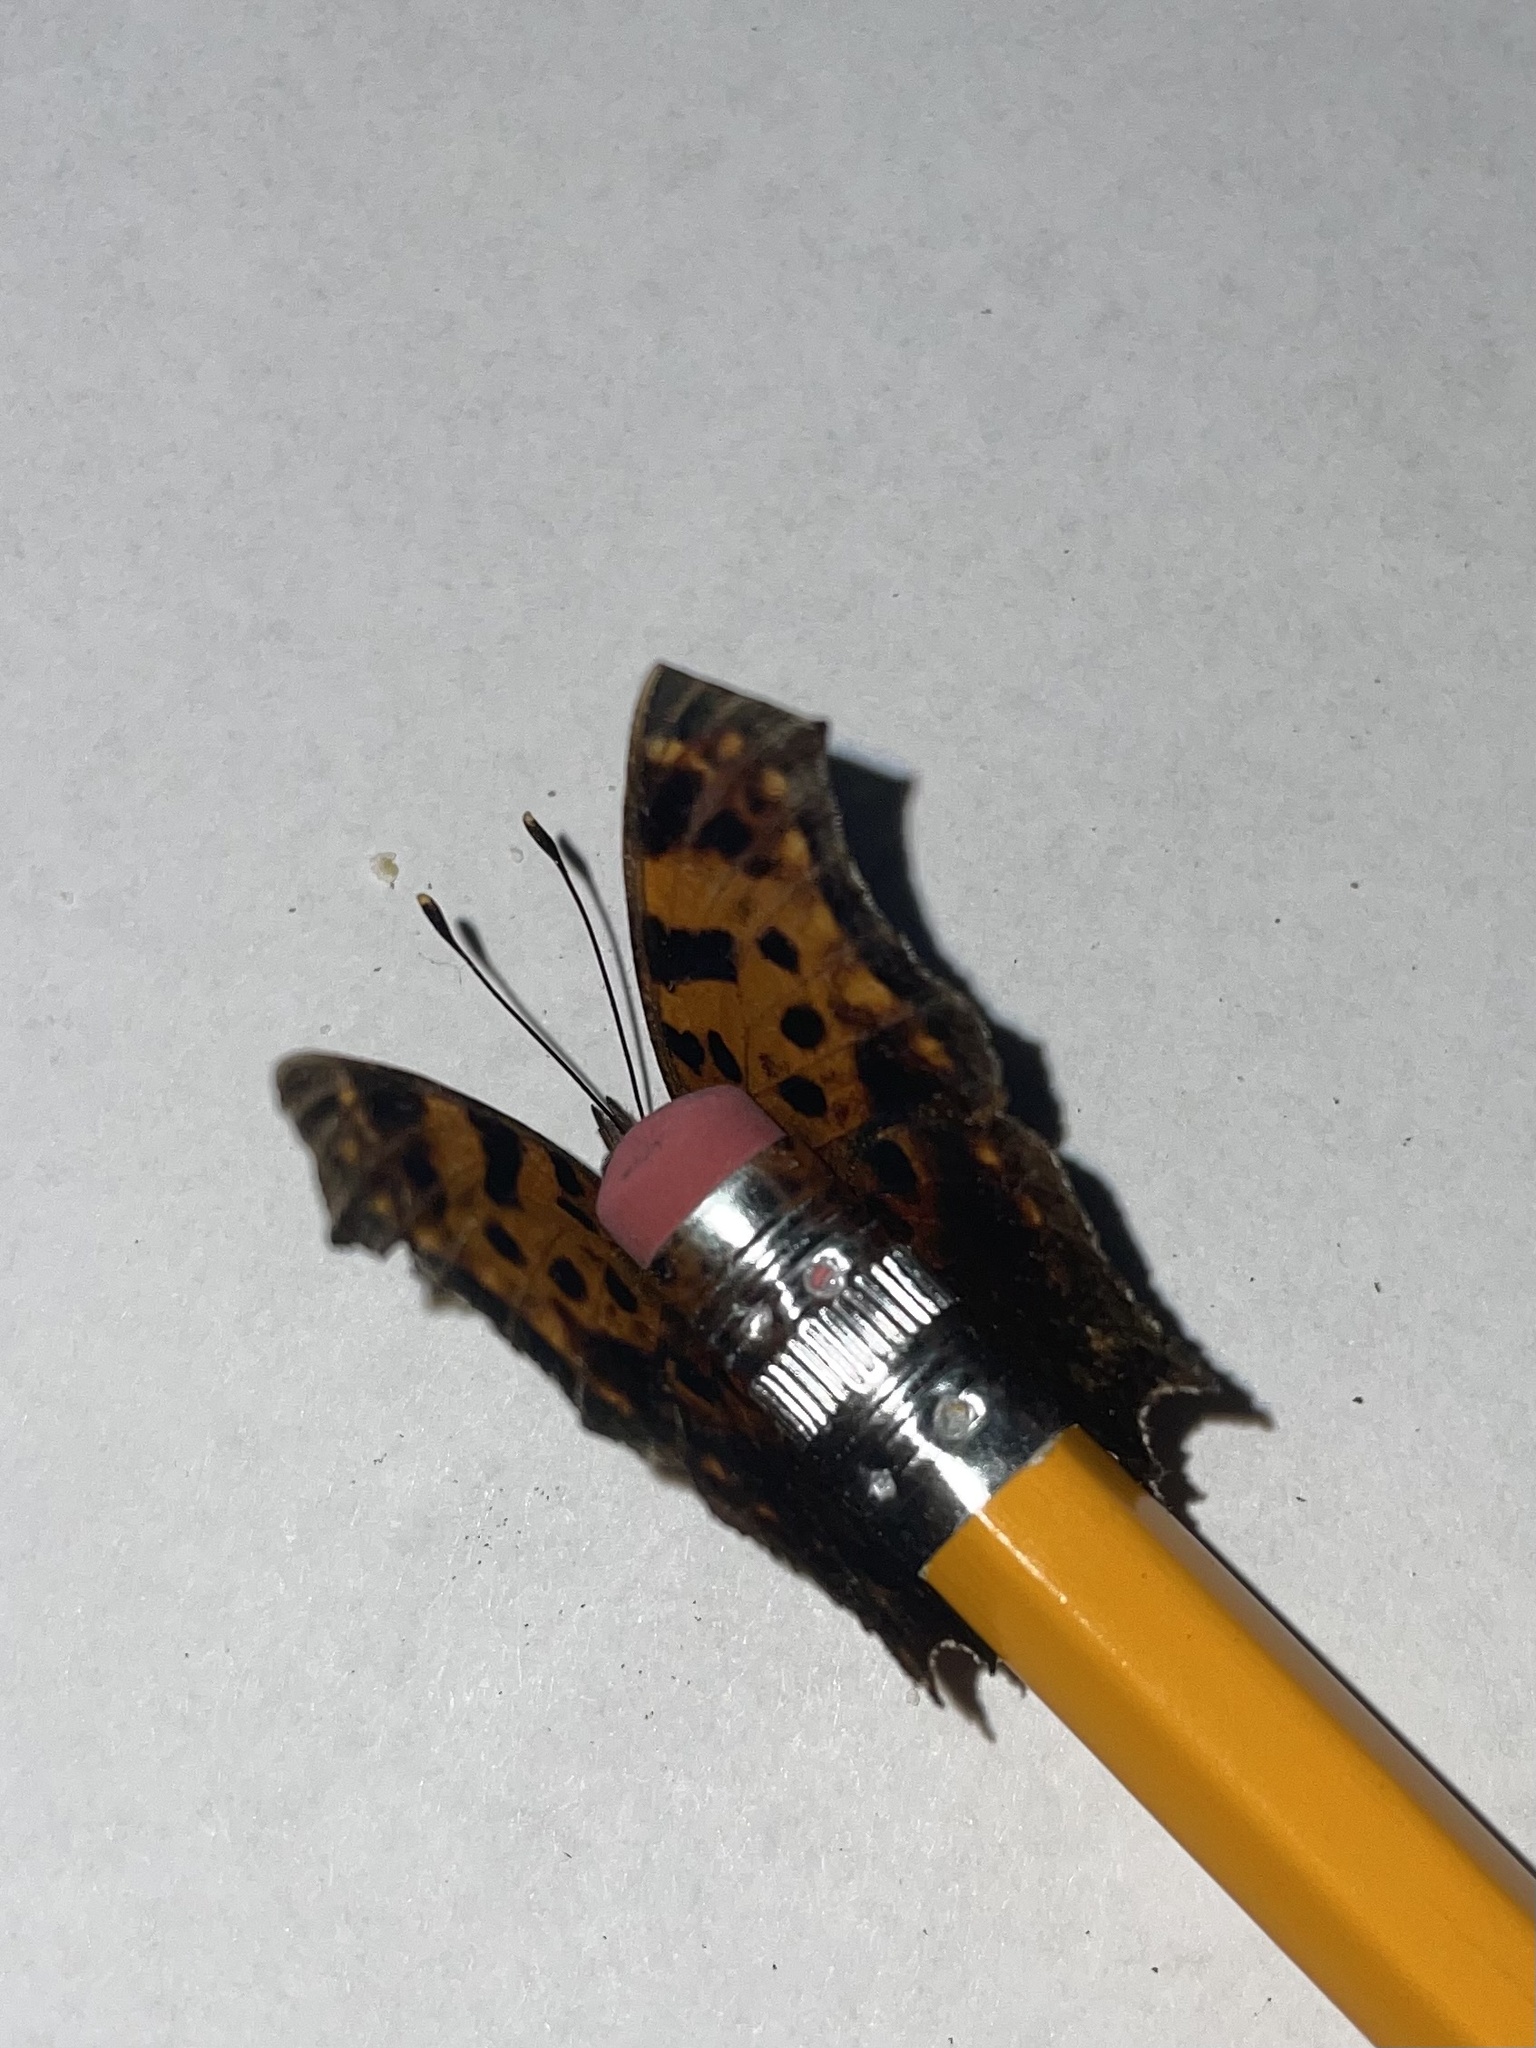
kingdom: Animalia
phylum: Arthropoda
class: Insecta
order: Lepidoptera
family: Nymphalidae
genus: Polygonia
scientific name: Polygonia interrogationis
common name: Question mark
